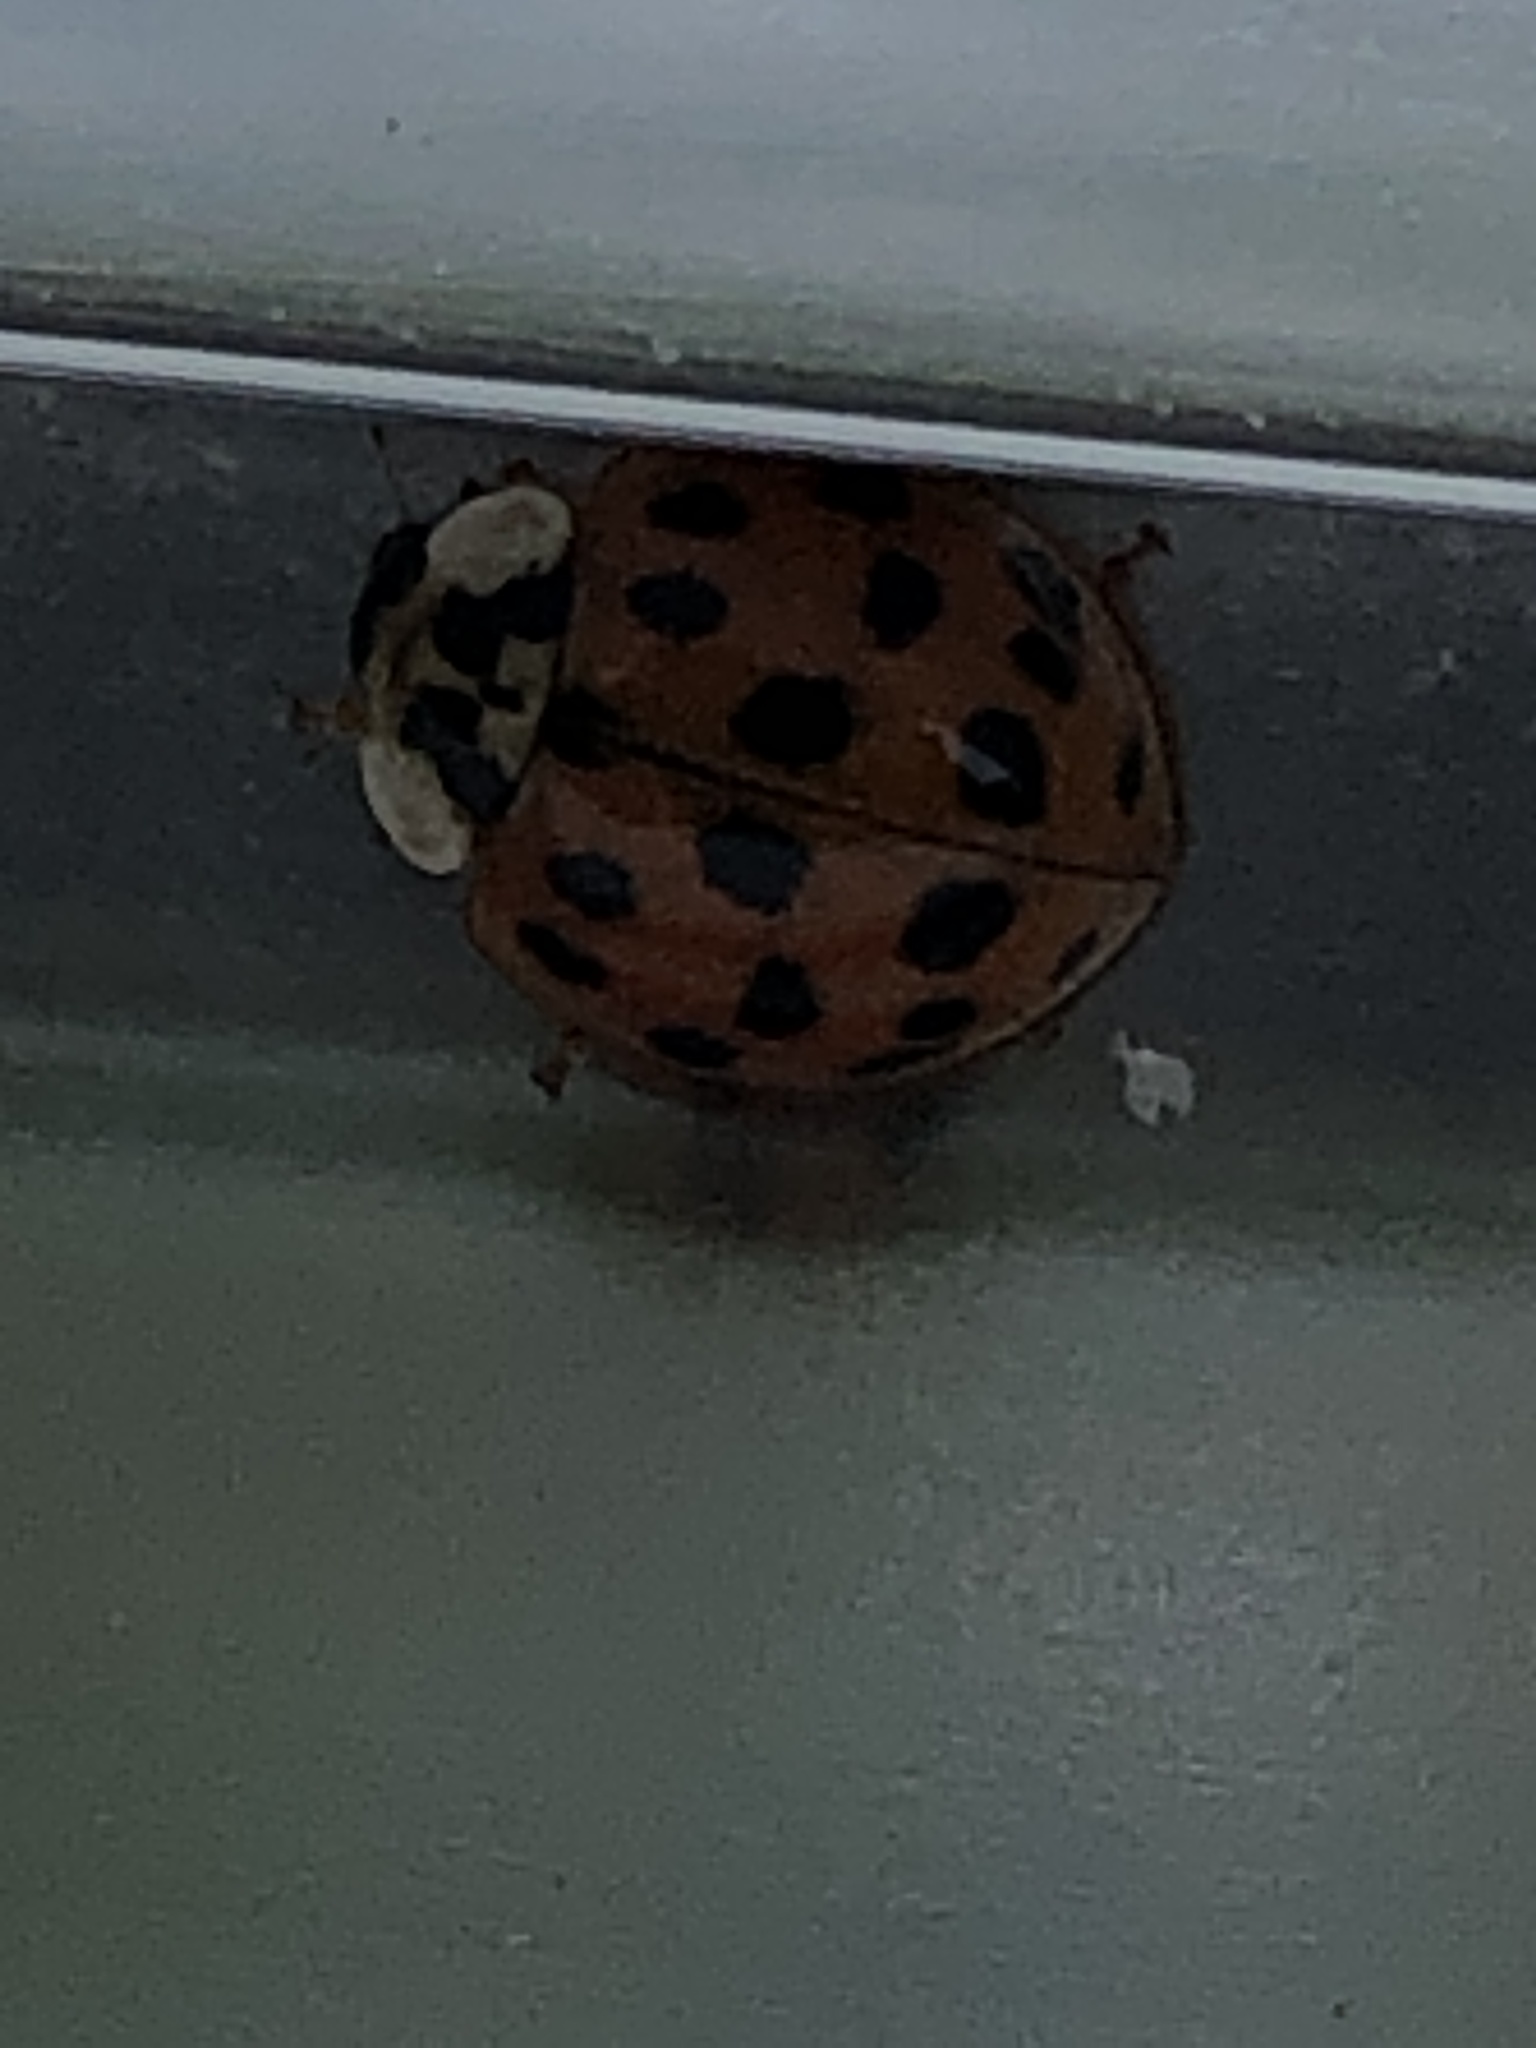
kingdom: Animalia
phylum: Arthropoda
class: Insecta
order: Coleoptera
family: Coccinellidae
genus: Harmonia
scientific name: Harmonia axyridis
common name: Harlequin ladybird
